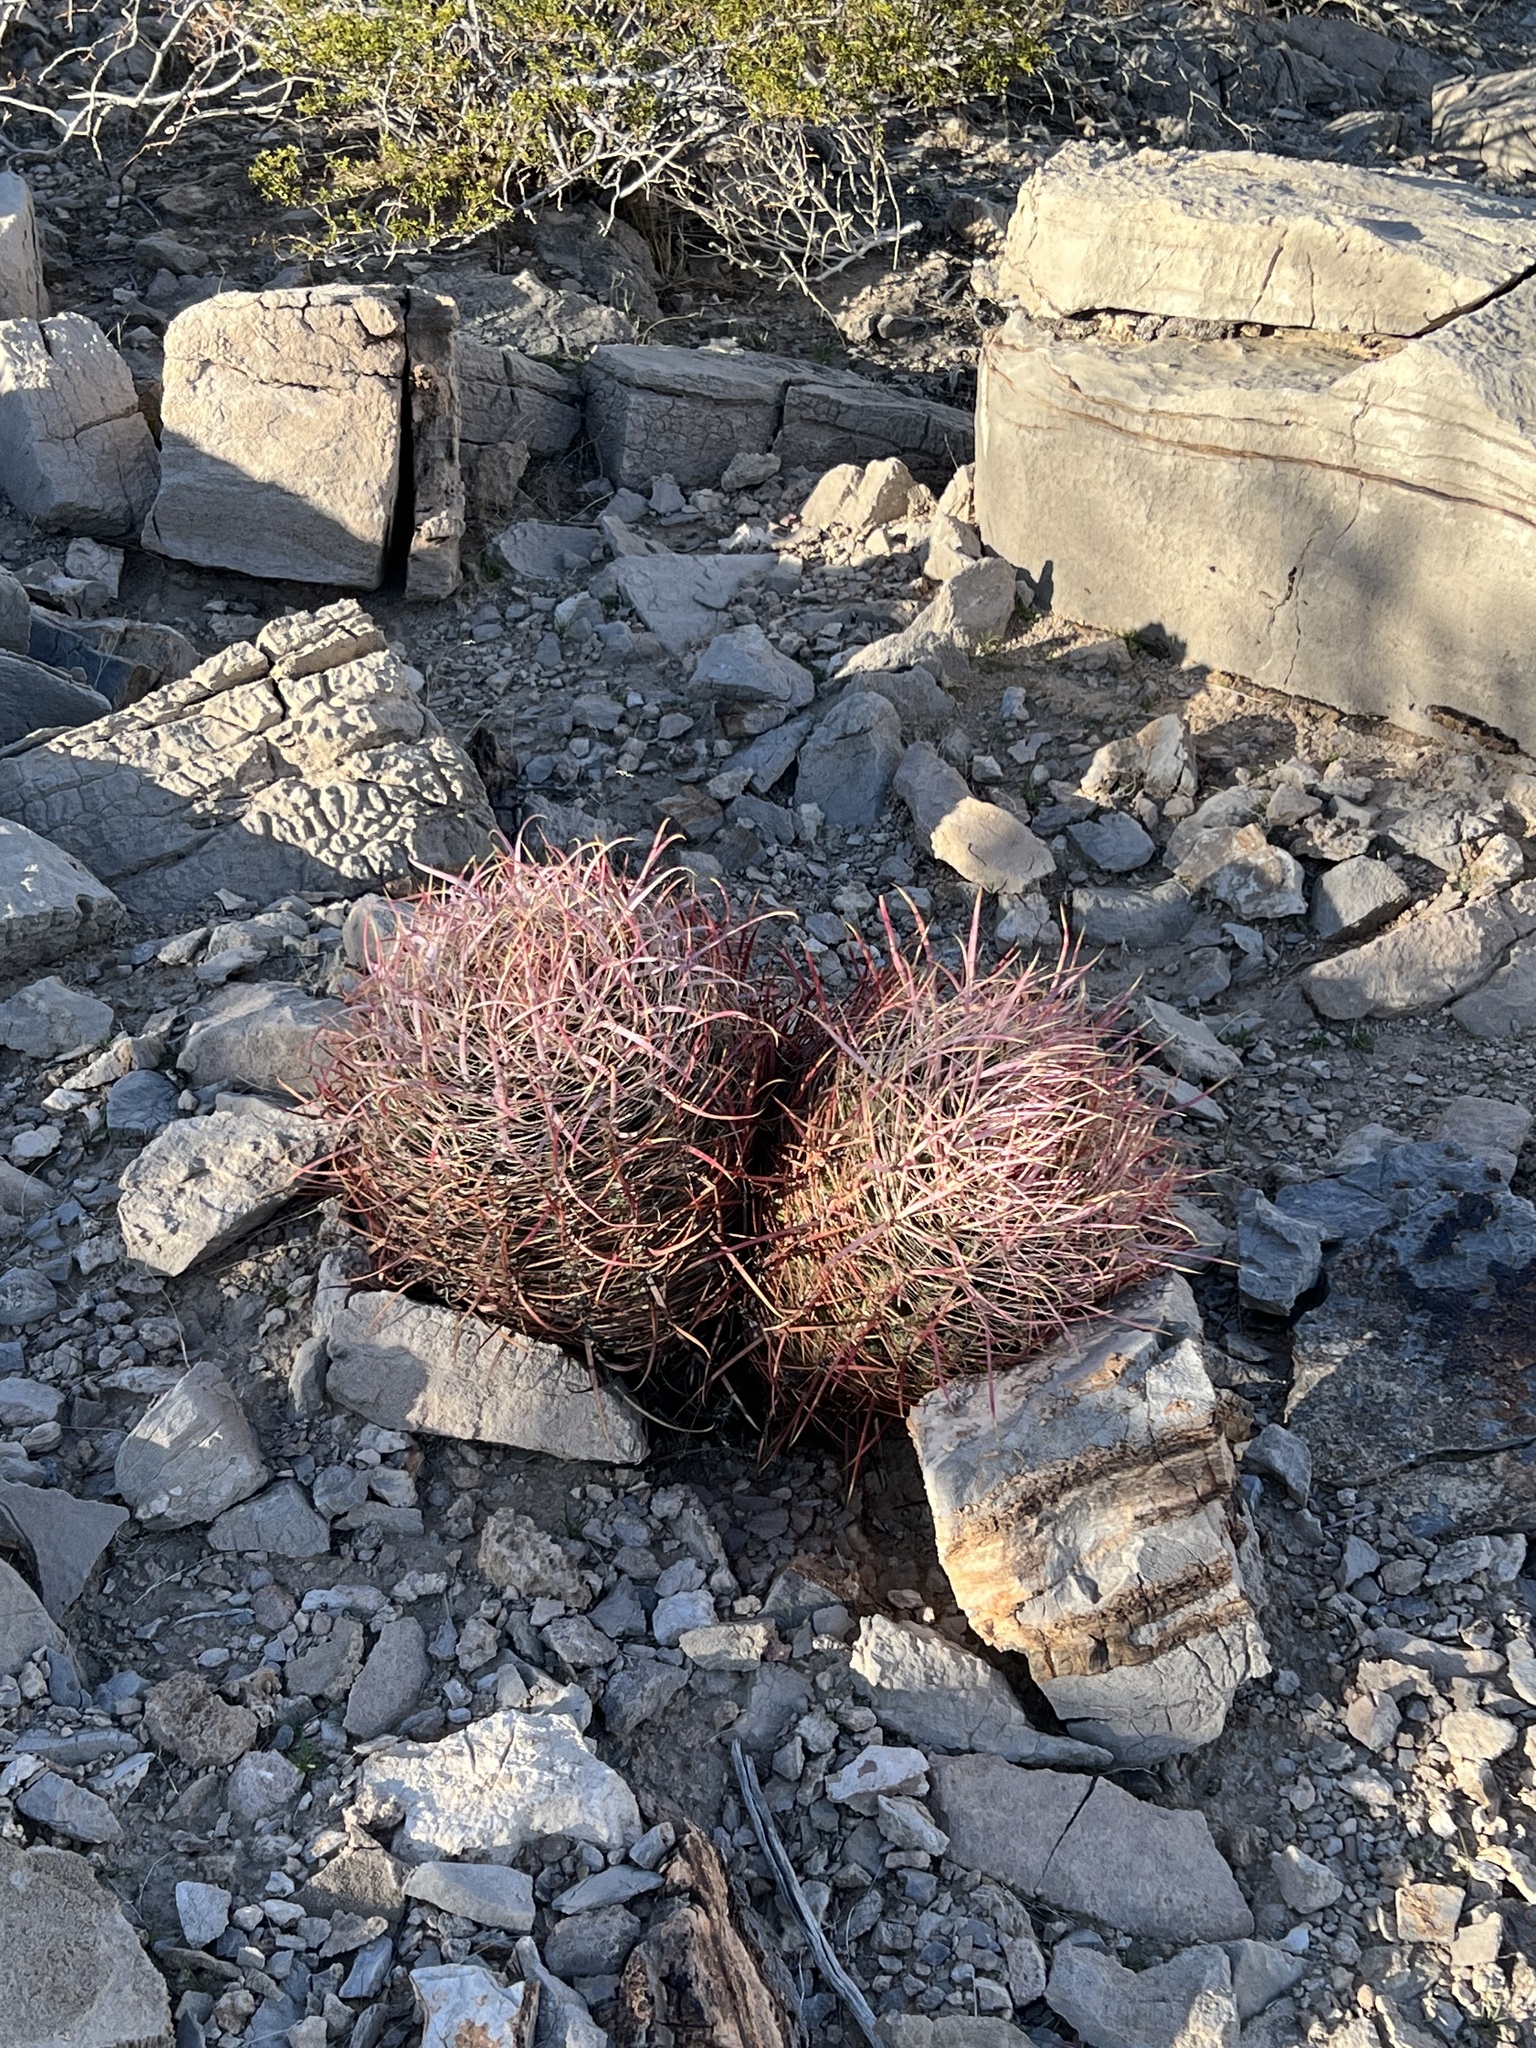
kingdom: Plantae
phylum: Tracheophyta
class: Magnoliopsida
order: Caryophyllales
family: Cactaceae
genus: Ferocactus
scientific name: Ferocactus cylindraceus
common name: California barrel cactus
